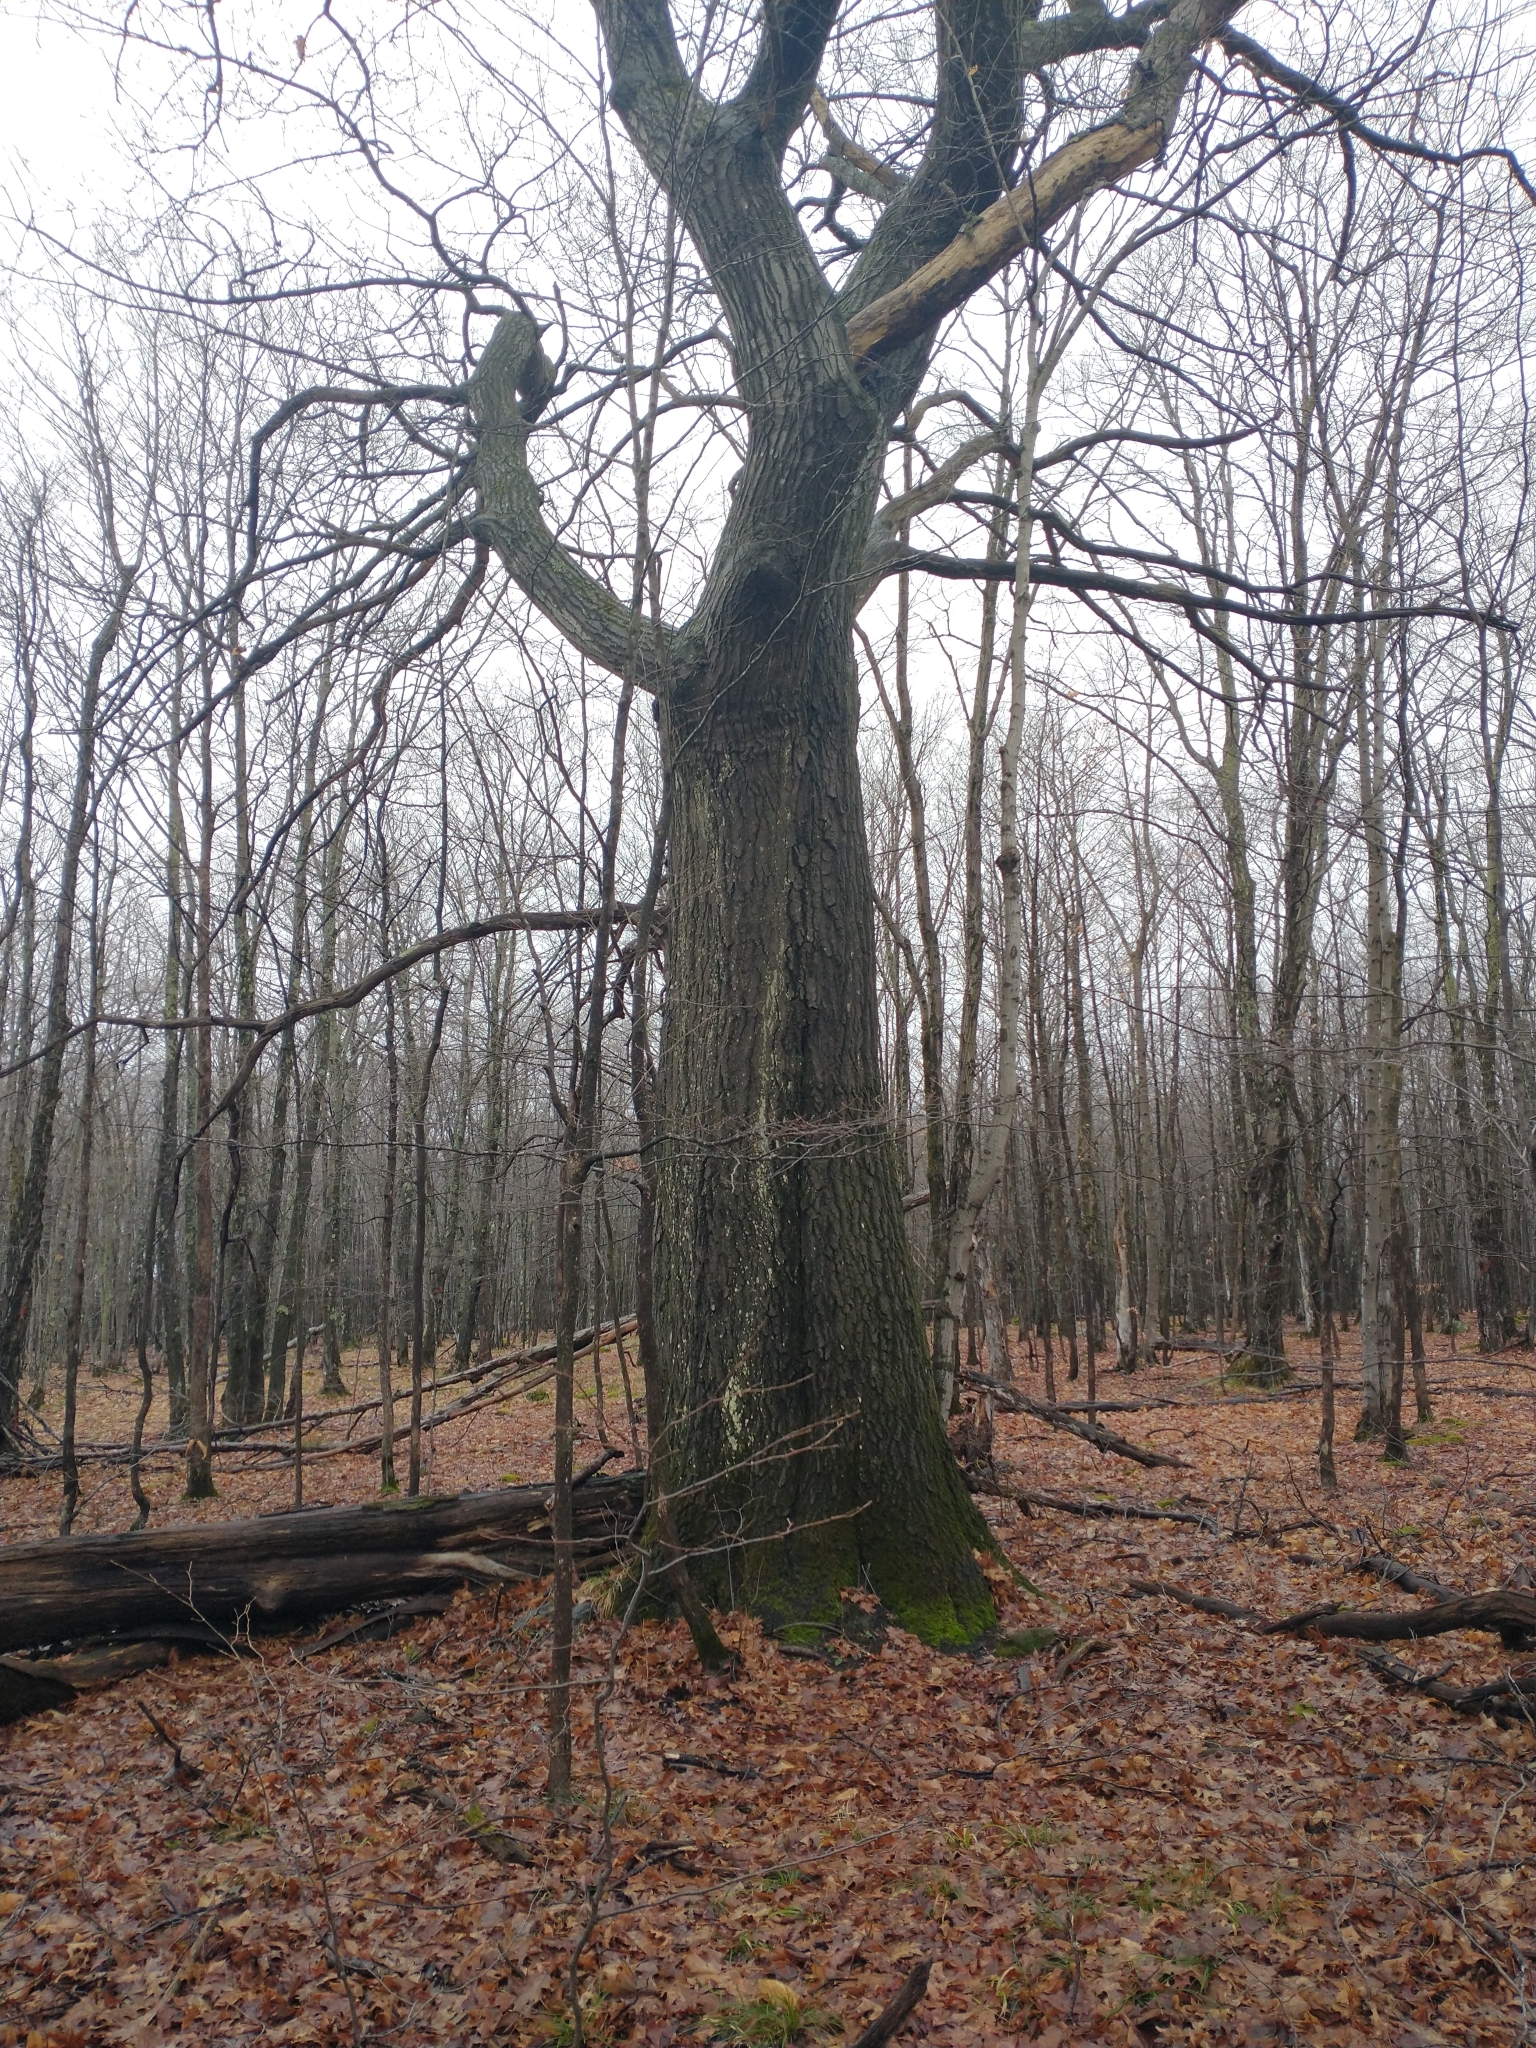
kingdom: Plantae
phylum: Tracheophyta
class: Magnoliopsida
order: Fagales
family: Fagaceae
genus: Quercus
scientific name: Quercus rubra
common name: Red oak
